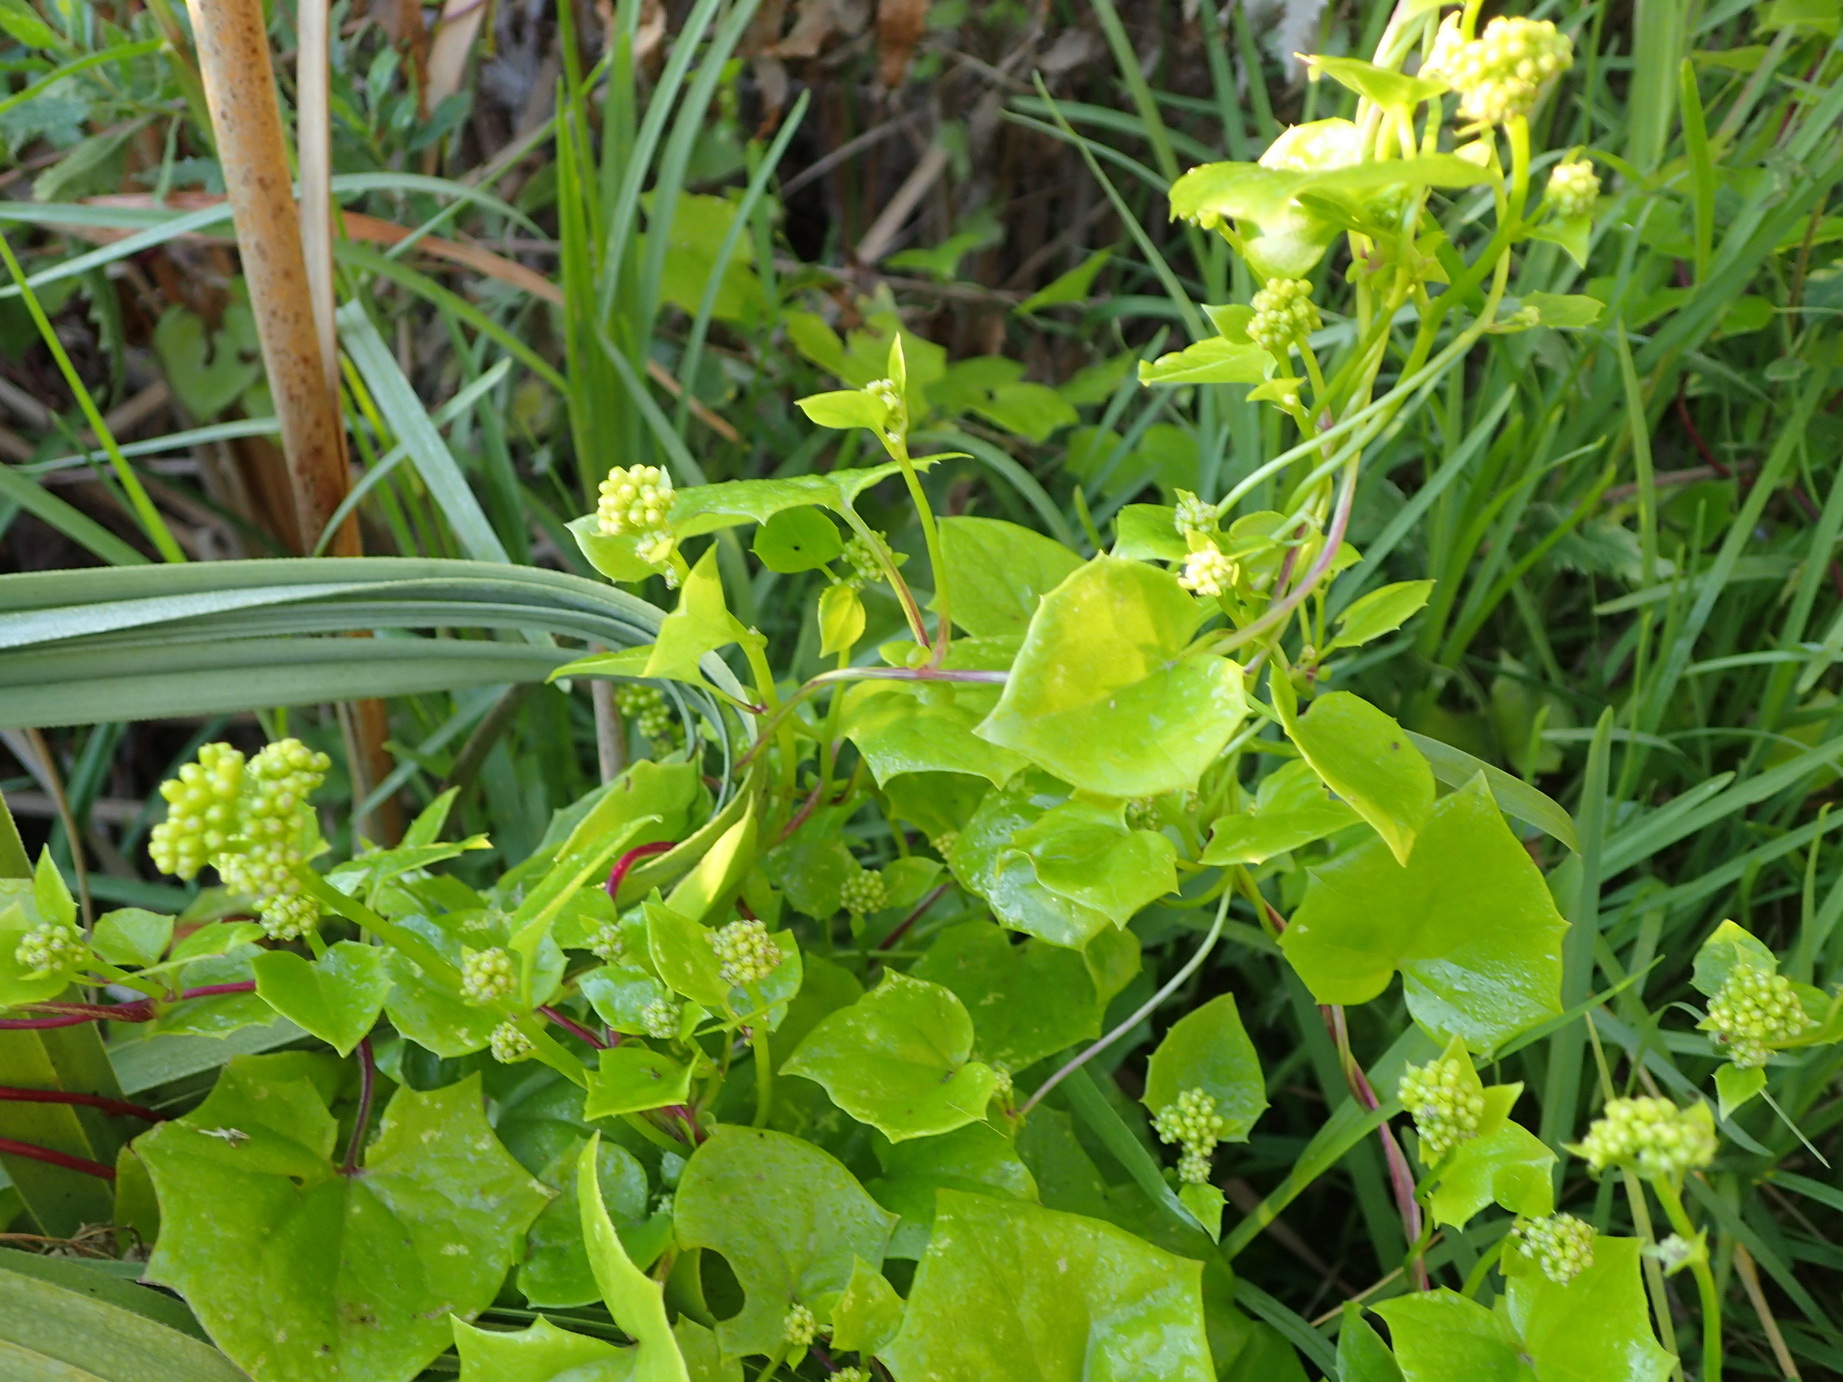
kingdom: Plantae
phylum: Tracheophyta
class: Magnoliopsida
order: Asterales
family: Asteraceae
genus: Senecio
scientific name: Senecio angulatus
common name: Climbing groundsel
